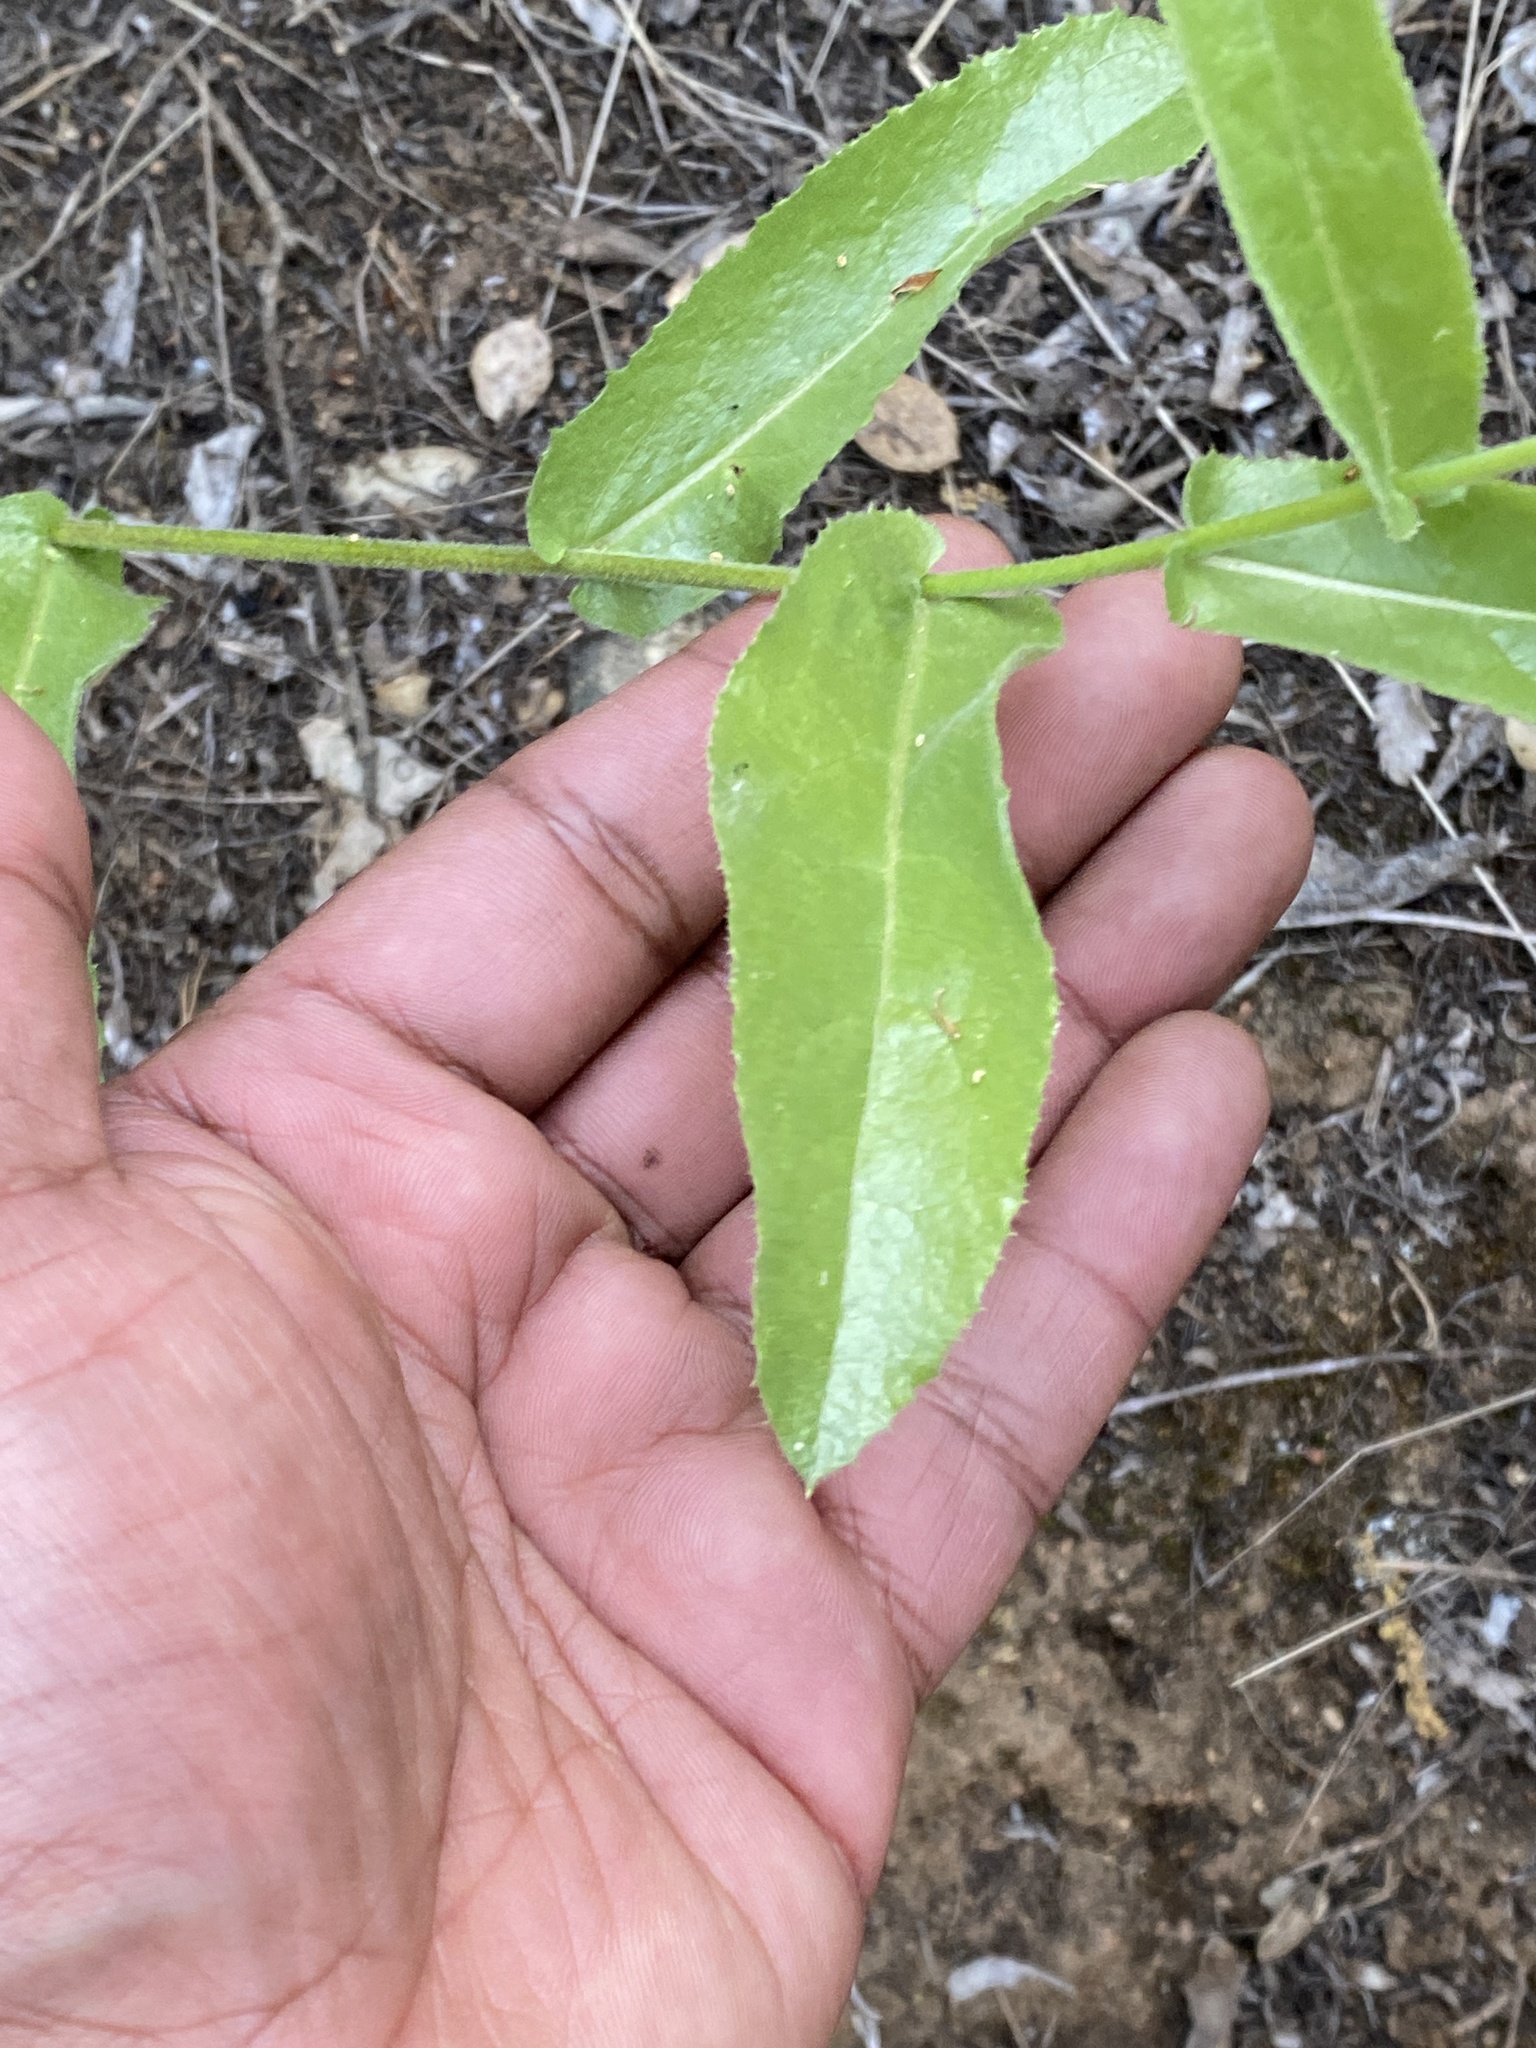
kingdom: Plantae
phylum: Tracheophyta
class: Magnoliopsida
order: Asterales
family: Asteraceae
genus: Acourtia
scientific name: Acourtia microcephala
